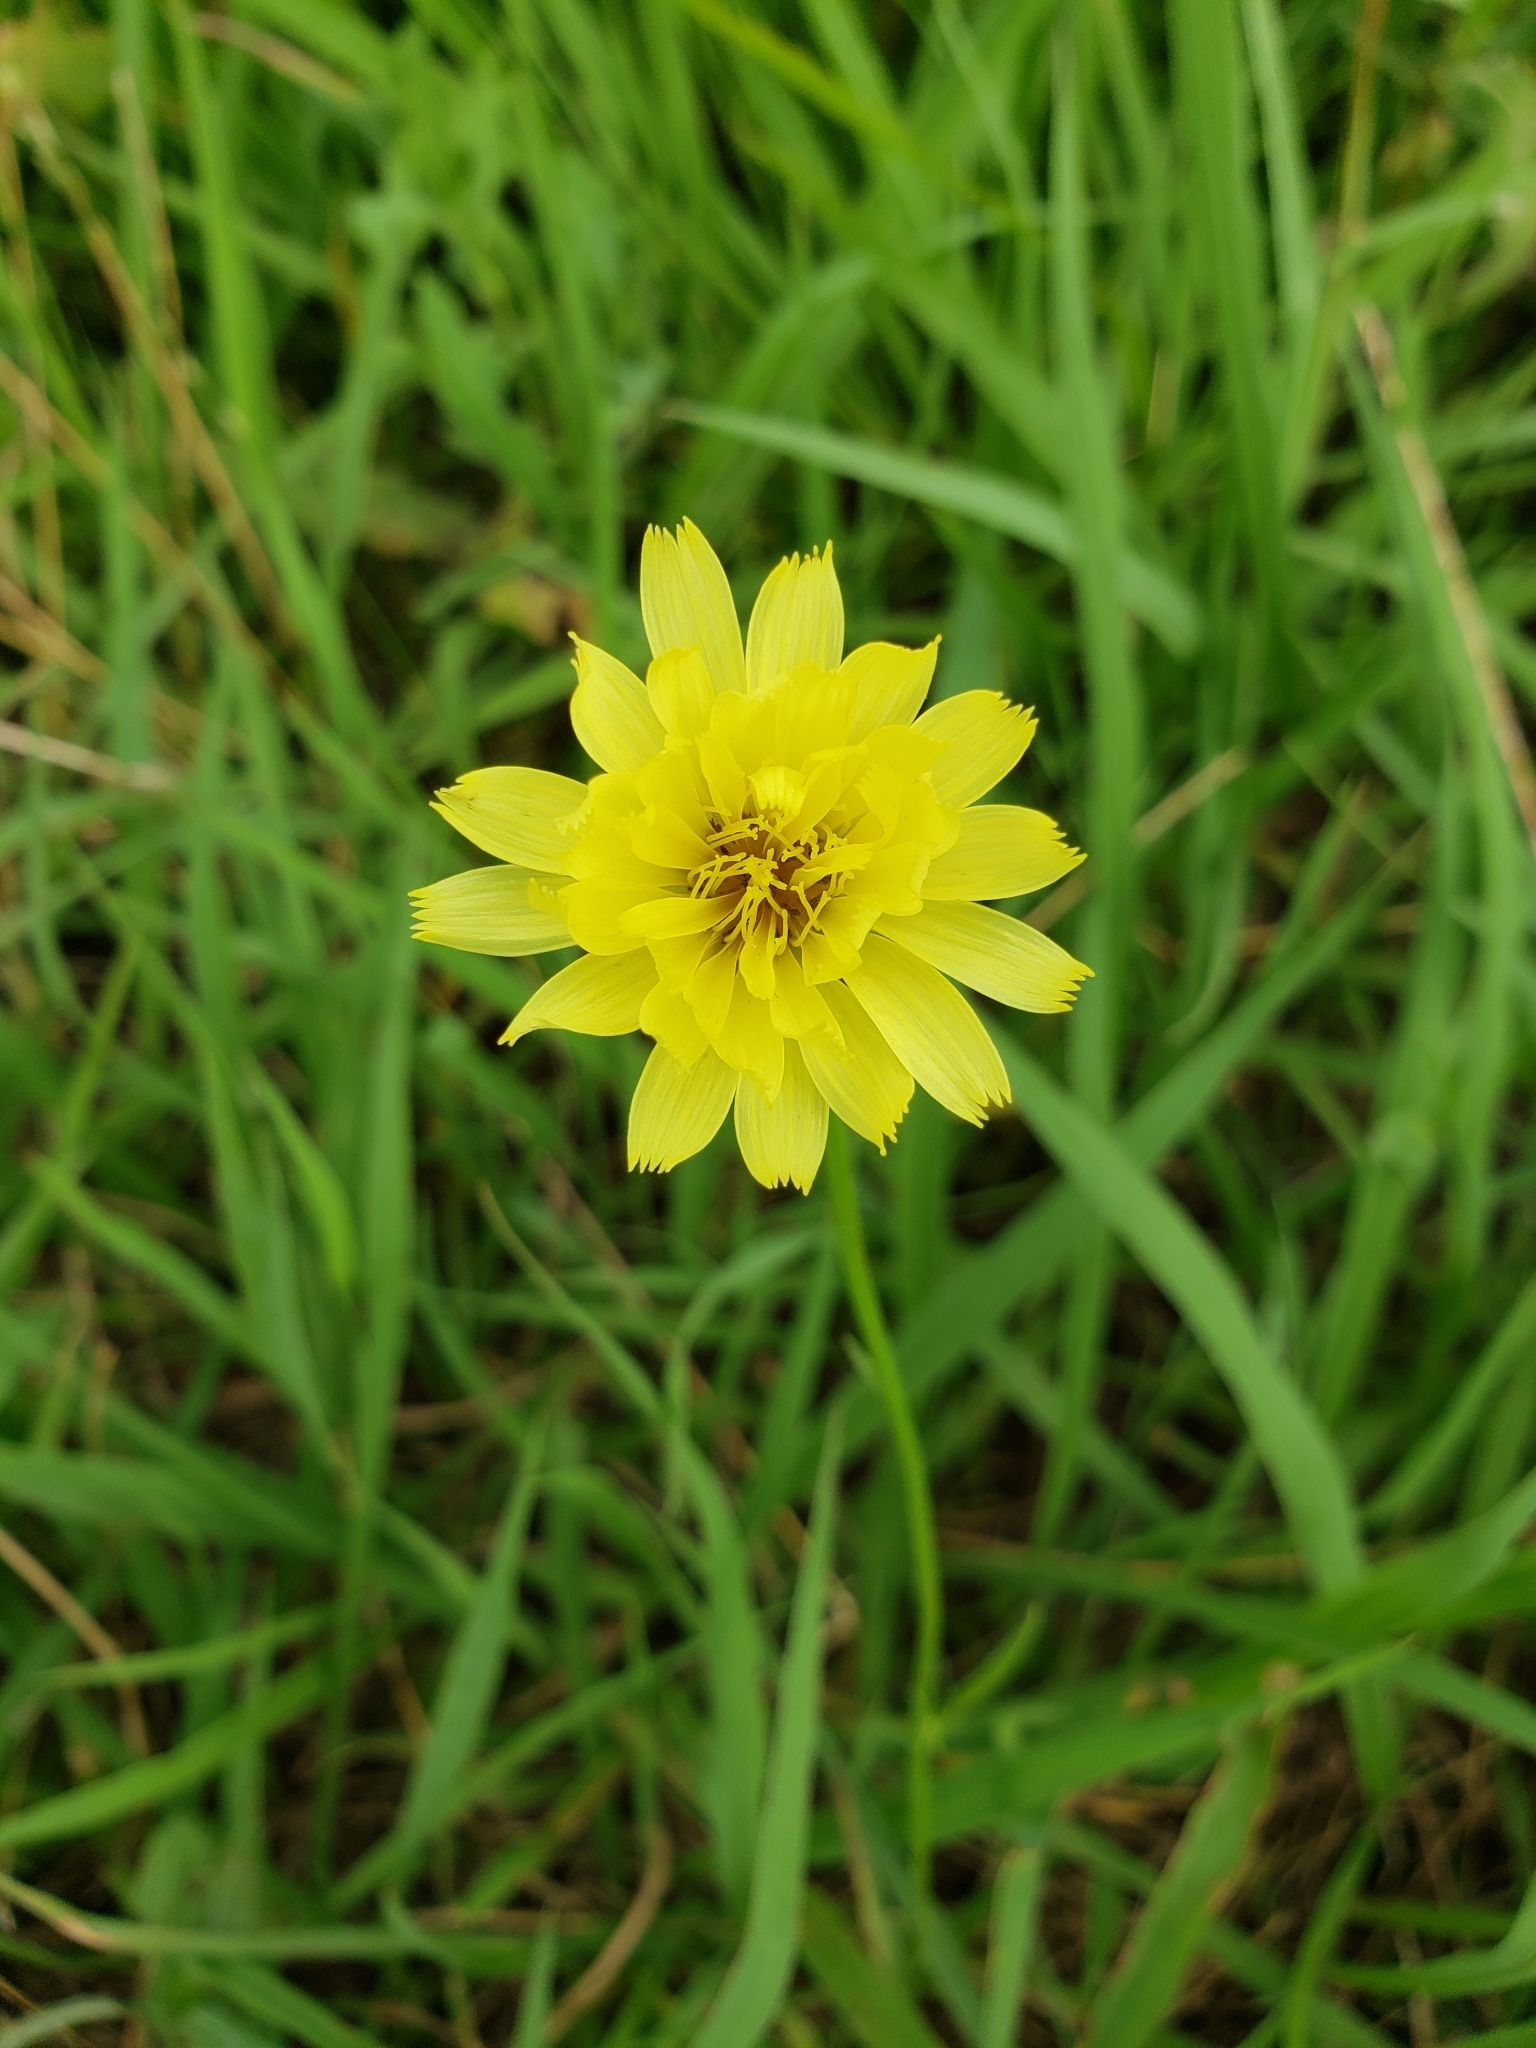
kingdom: Plantae
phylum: Tracheophyta
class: Magnoliopsida
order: Asterales
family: Asteraceae
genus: Pyrrhopappus
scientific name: Pyrrhopappus pauciflorus
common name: Texas false dandelion
